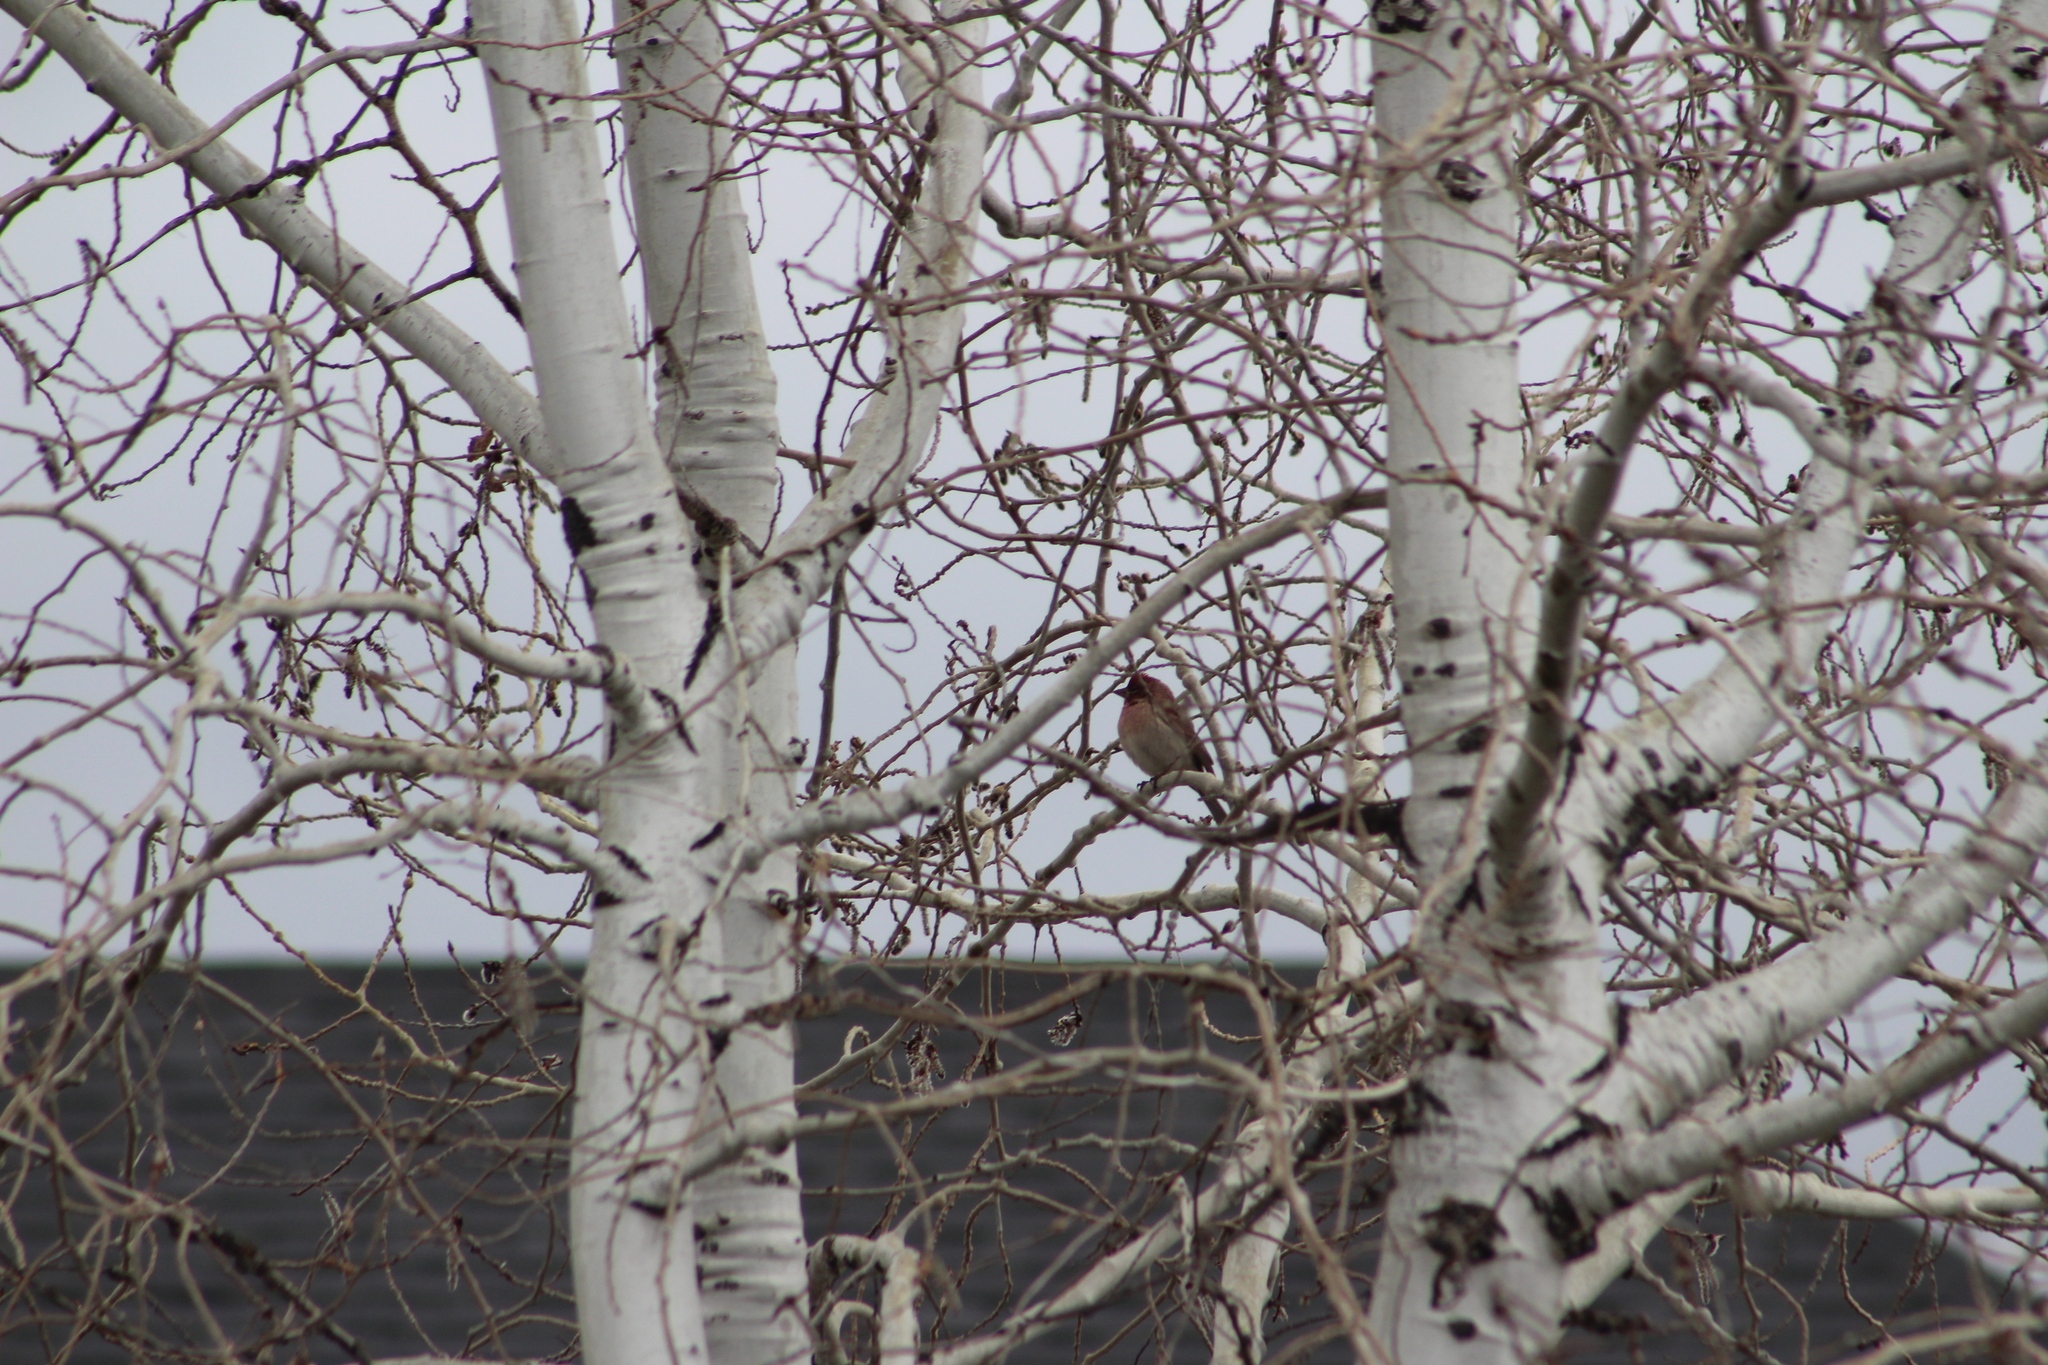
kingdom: Animalia
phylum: Chordata
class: Aves
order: Passeriformes
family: Fringillidae
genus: Haemorhous
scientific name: Haemorhous cassinii
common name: Cassin's finch
